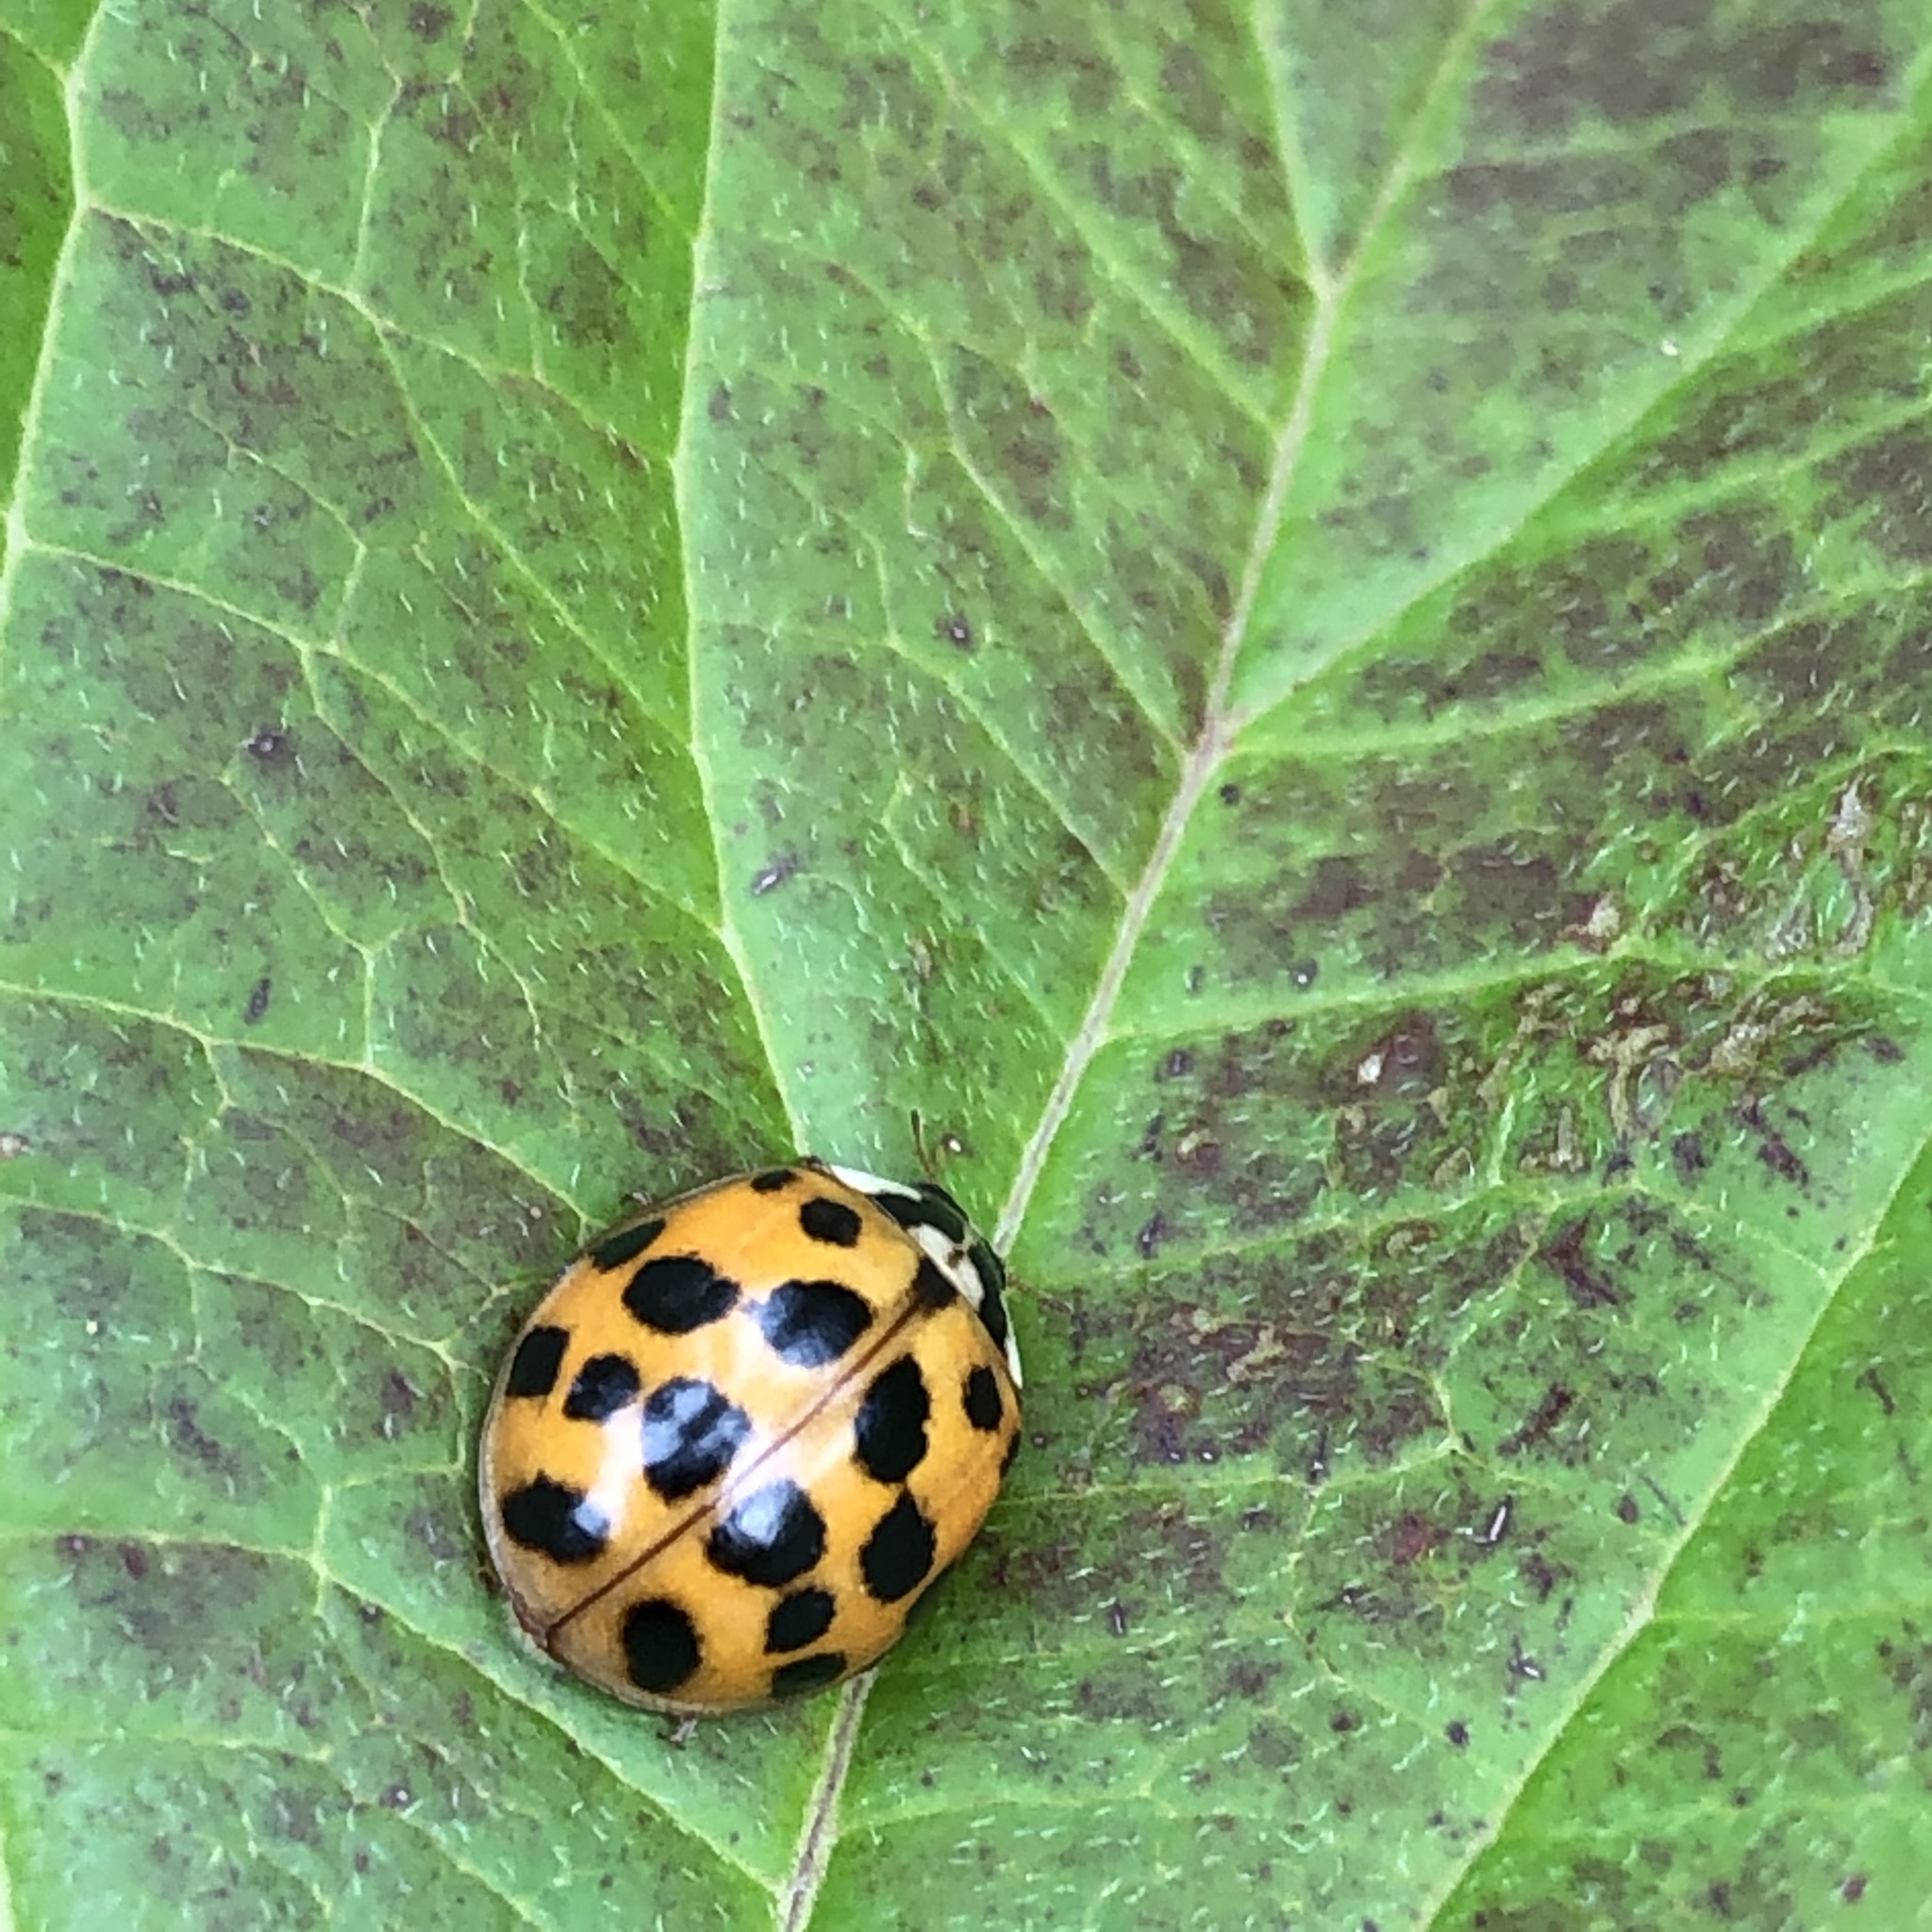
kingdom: Animalia
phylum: Arthropoda
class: Insecta
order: Coleoptera
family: Coccinellidae
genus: Harmonia
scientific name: Harmonia axyridis
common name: Harlequin ladybird
